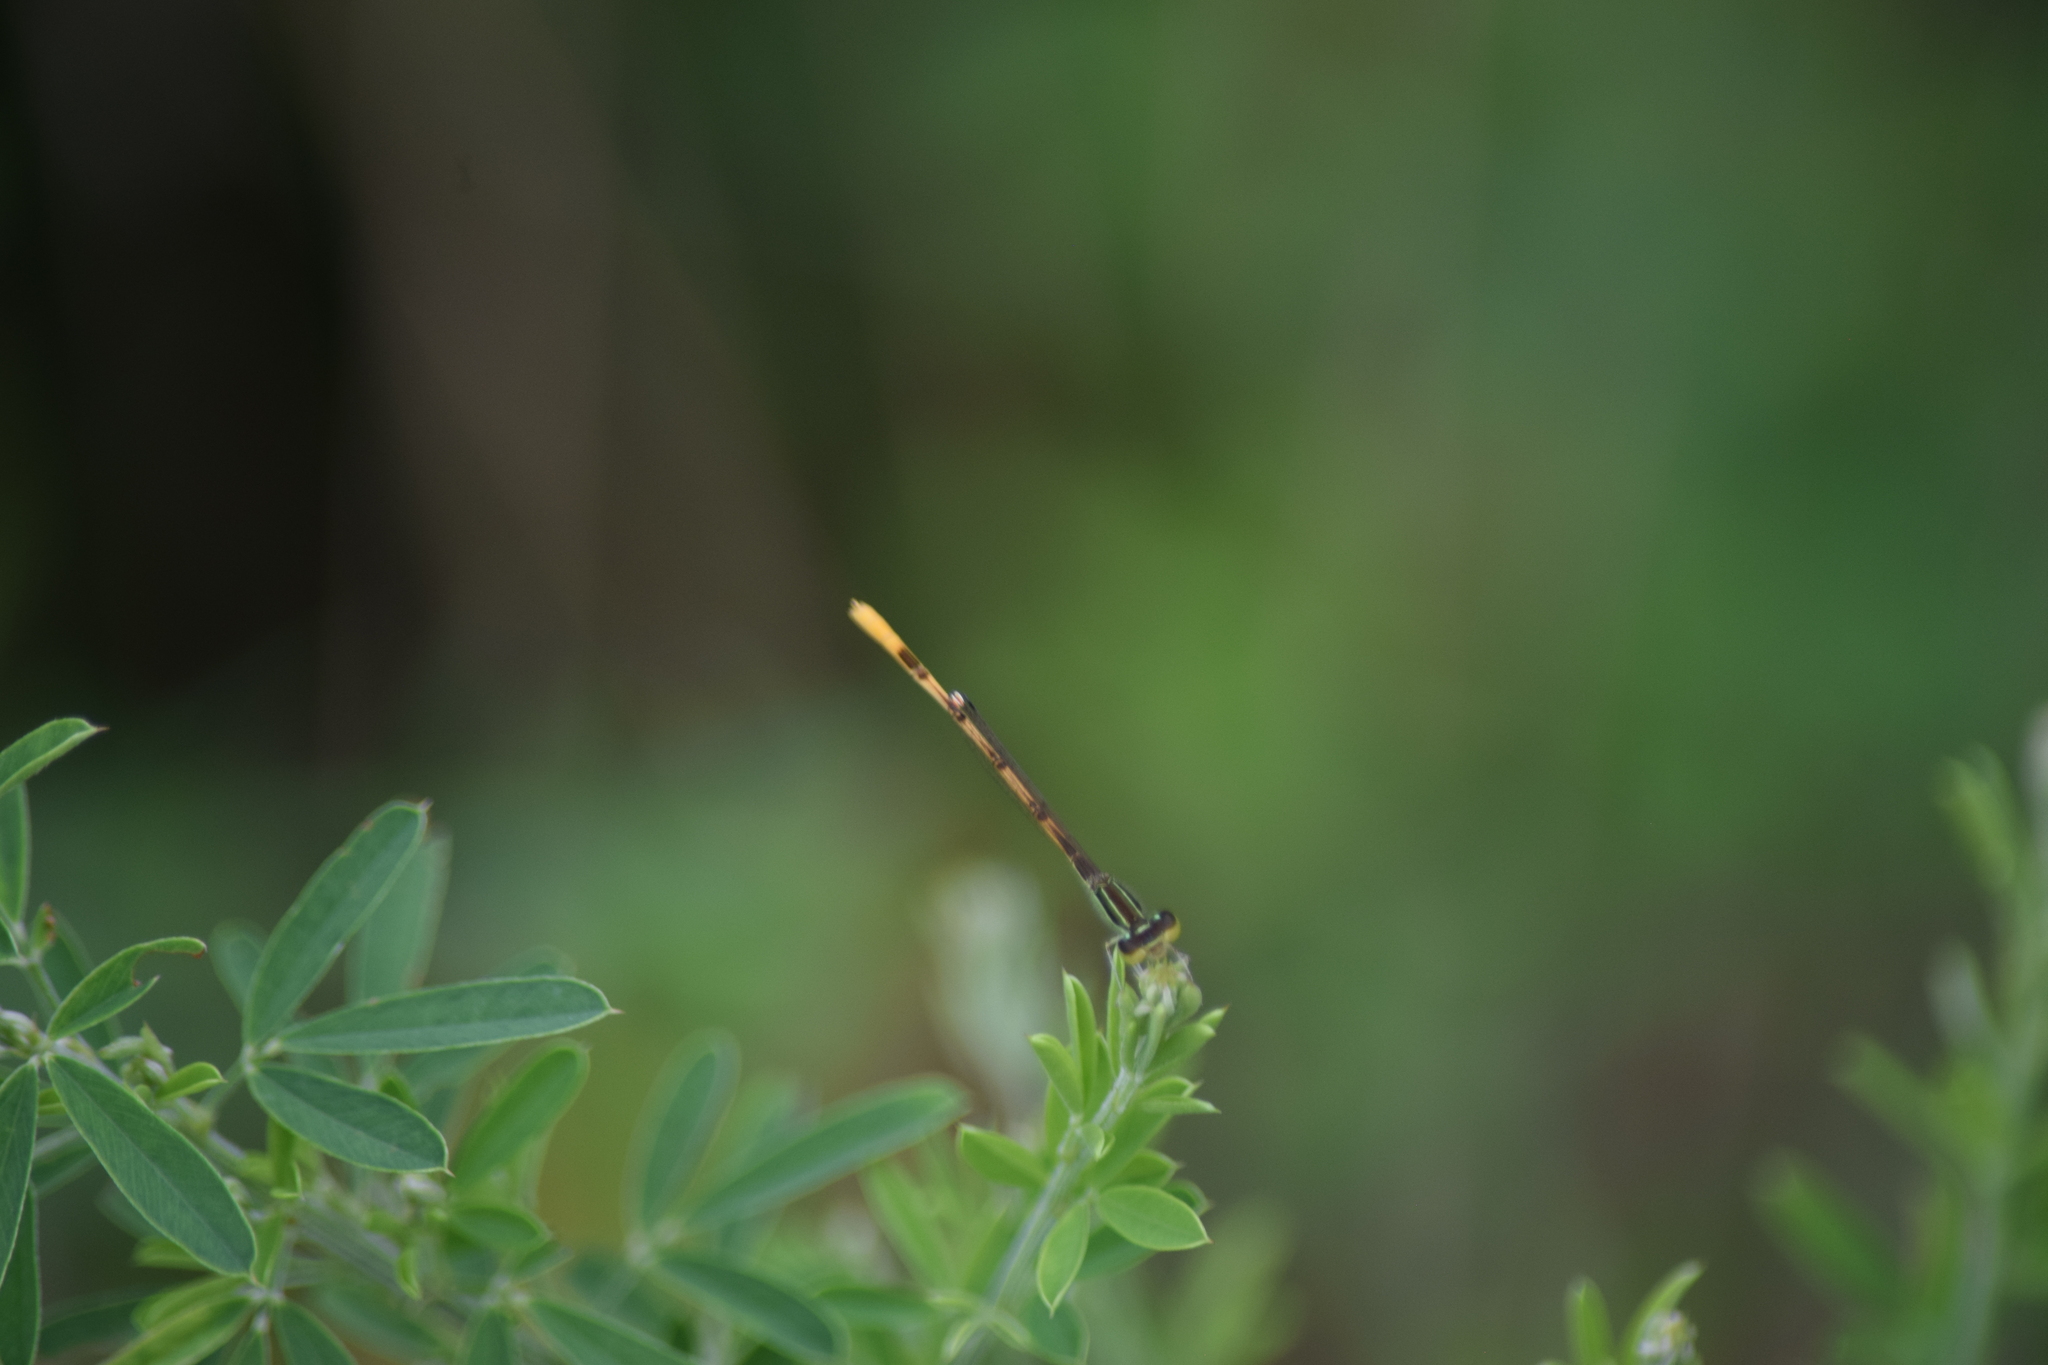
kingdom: Animalia
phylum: Arthropoda
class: Insecta
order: Odonata
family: Coenagrionidae
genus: Ischnura
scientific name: Ischnura hastata
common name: Citrine forktail
